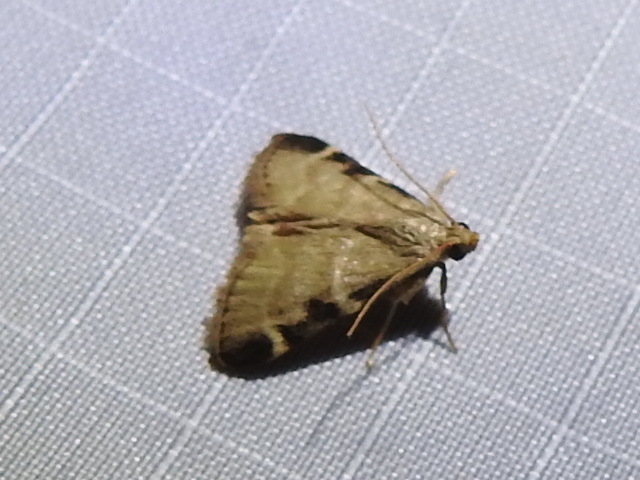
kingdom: Animalia
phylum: Arthropoda
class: Insecta
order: Lepidoptera
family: Pyralidae
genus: Hypsopygia
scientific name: Hypsopygia
